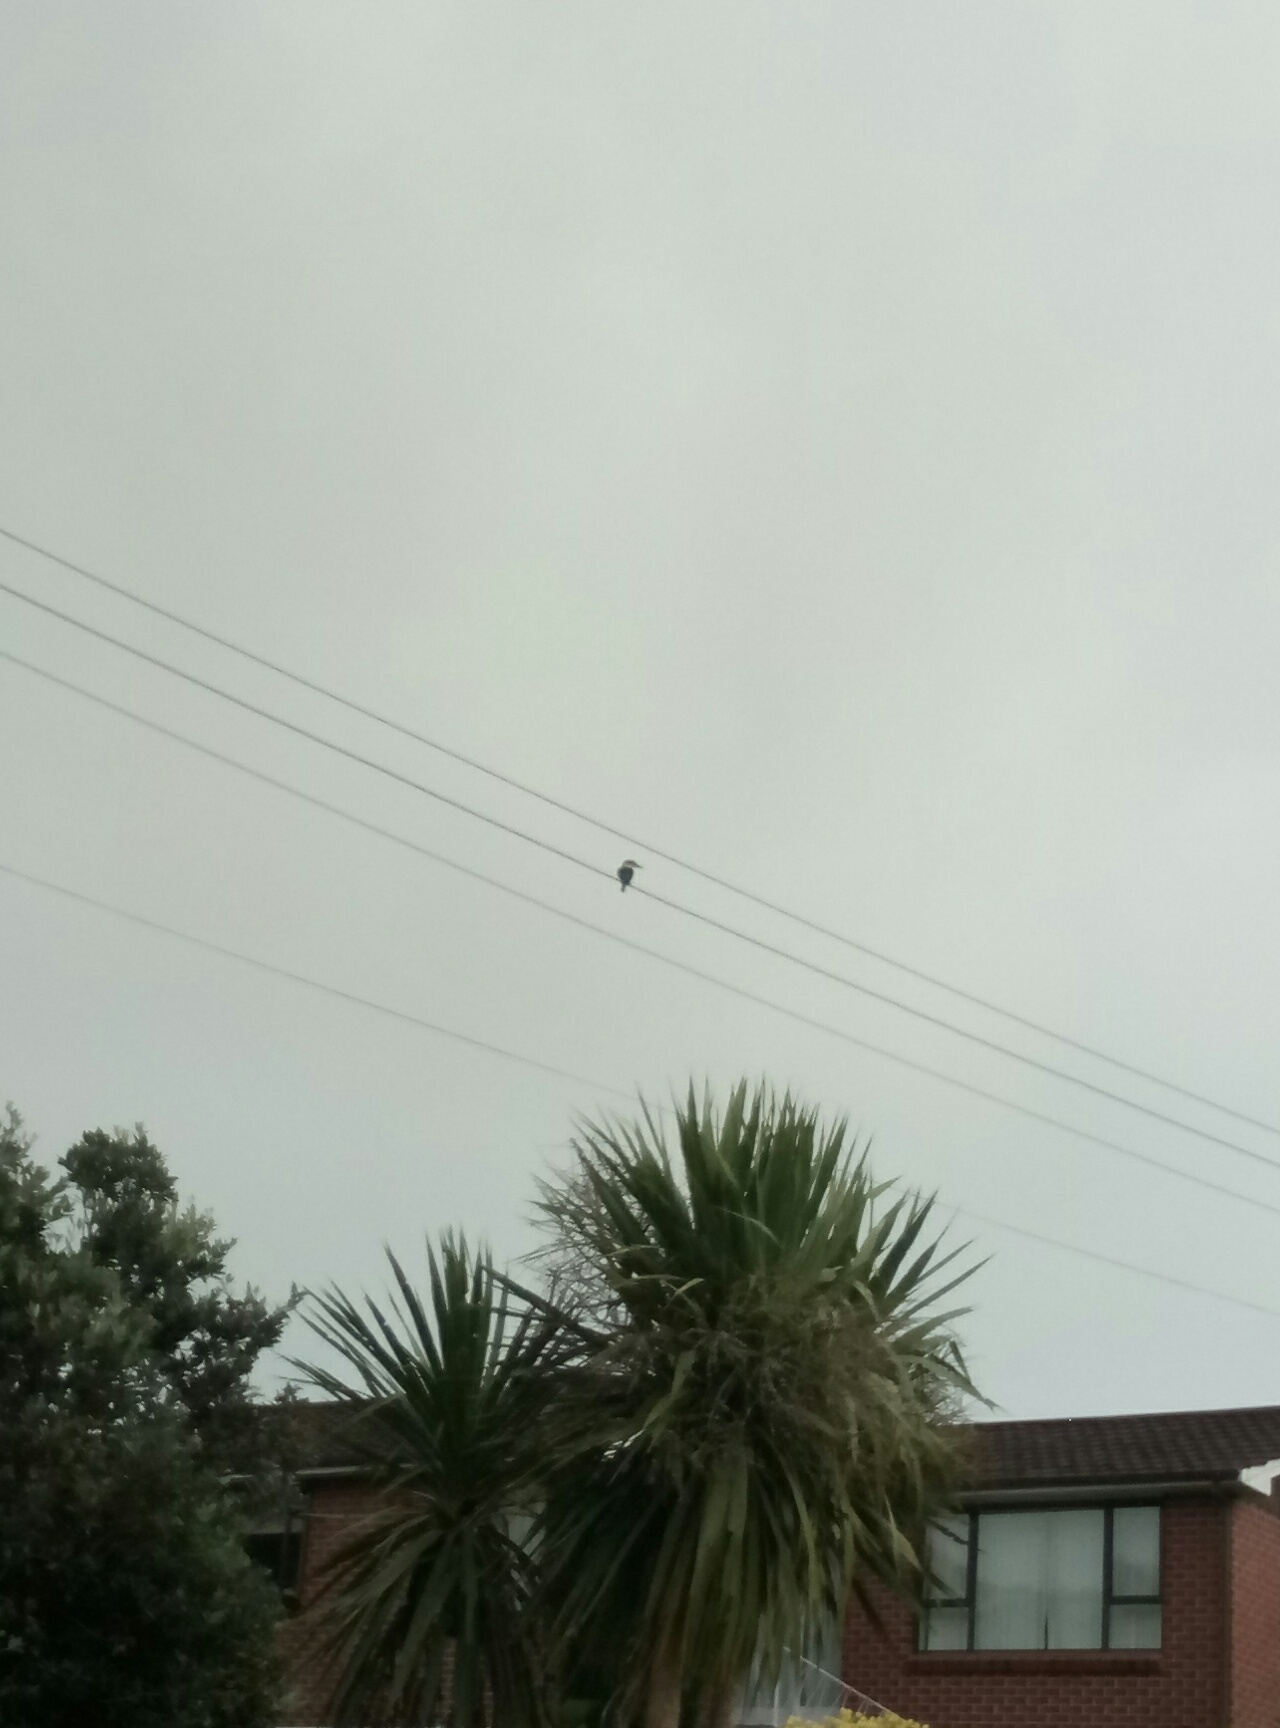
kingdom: Animalia
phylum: Chordata
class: Aves
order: Coraciiformes
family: Alcedinidae
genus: Todiramphus
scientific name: Todiramphus sanctus
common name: Sacred kingfisher
